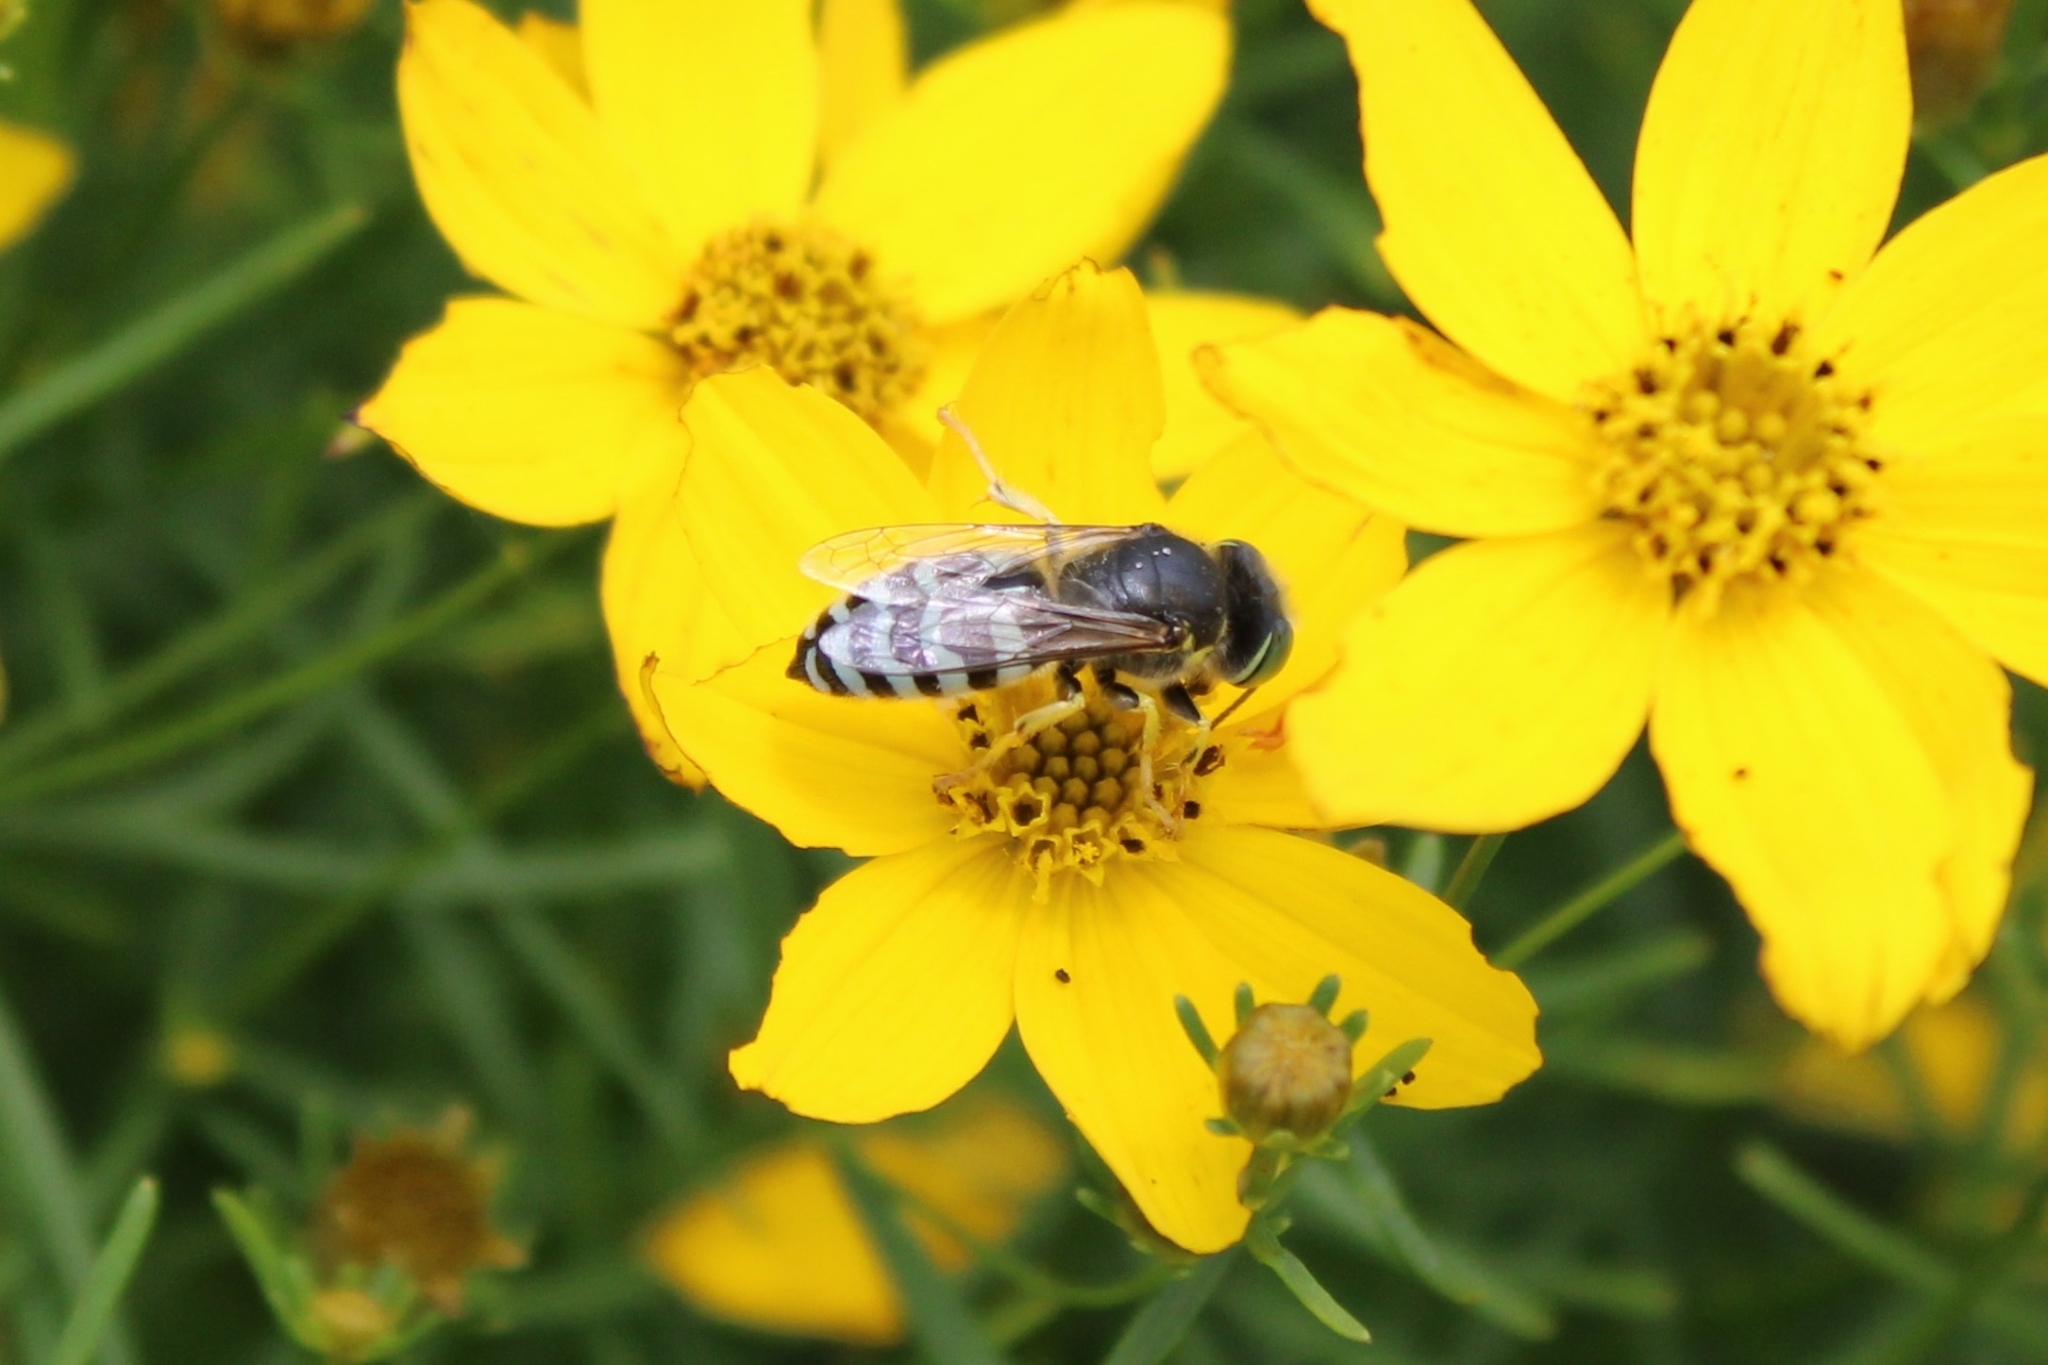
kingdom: Animalia
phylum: Arthropoda
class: Insecta
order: Hymenoptera
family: Crabronidae
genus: Bembix
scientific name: Bembix americana
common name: American sand wasp
